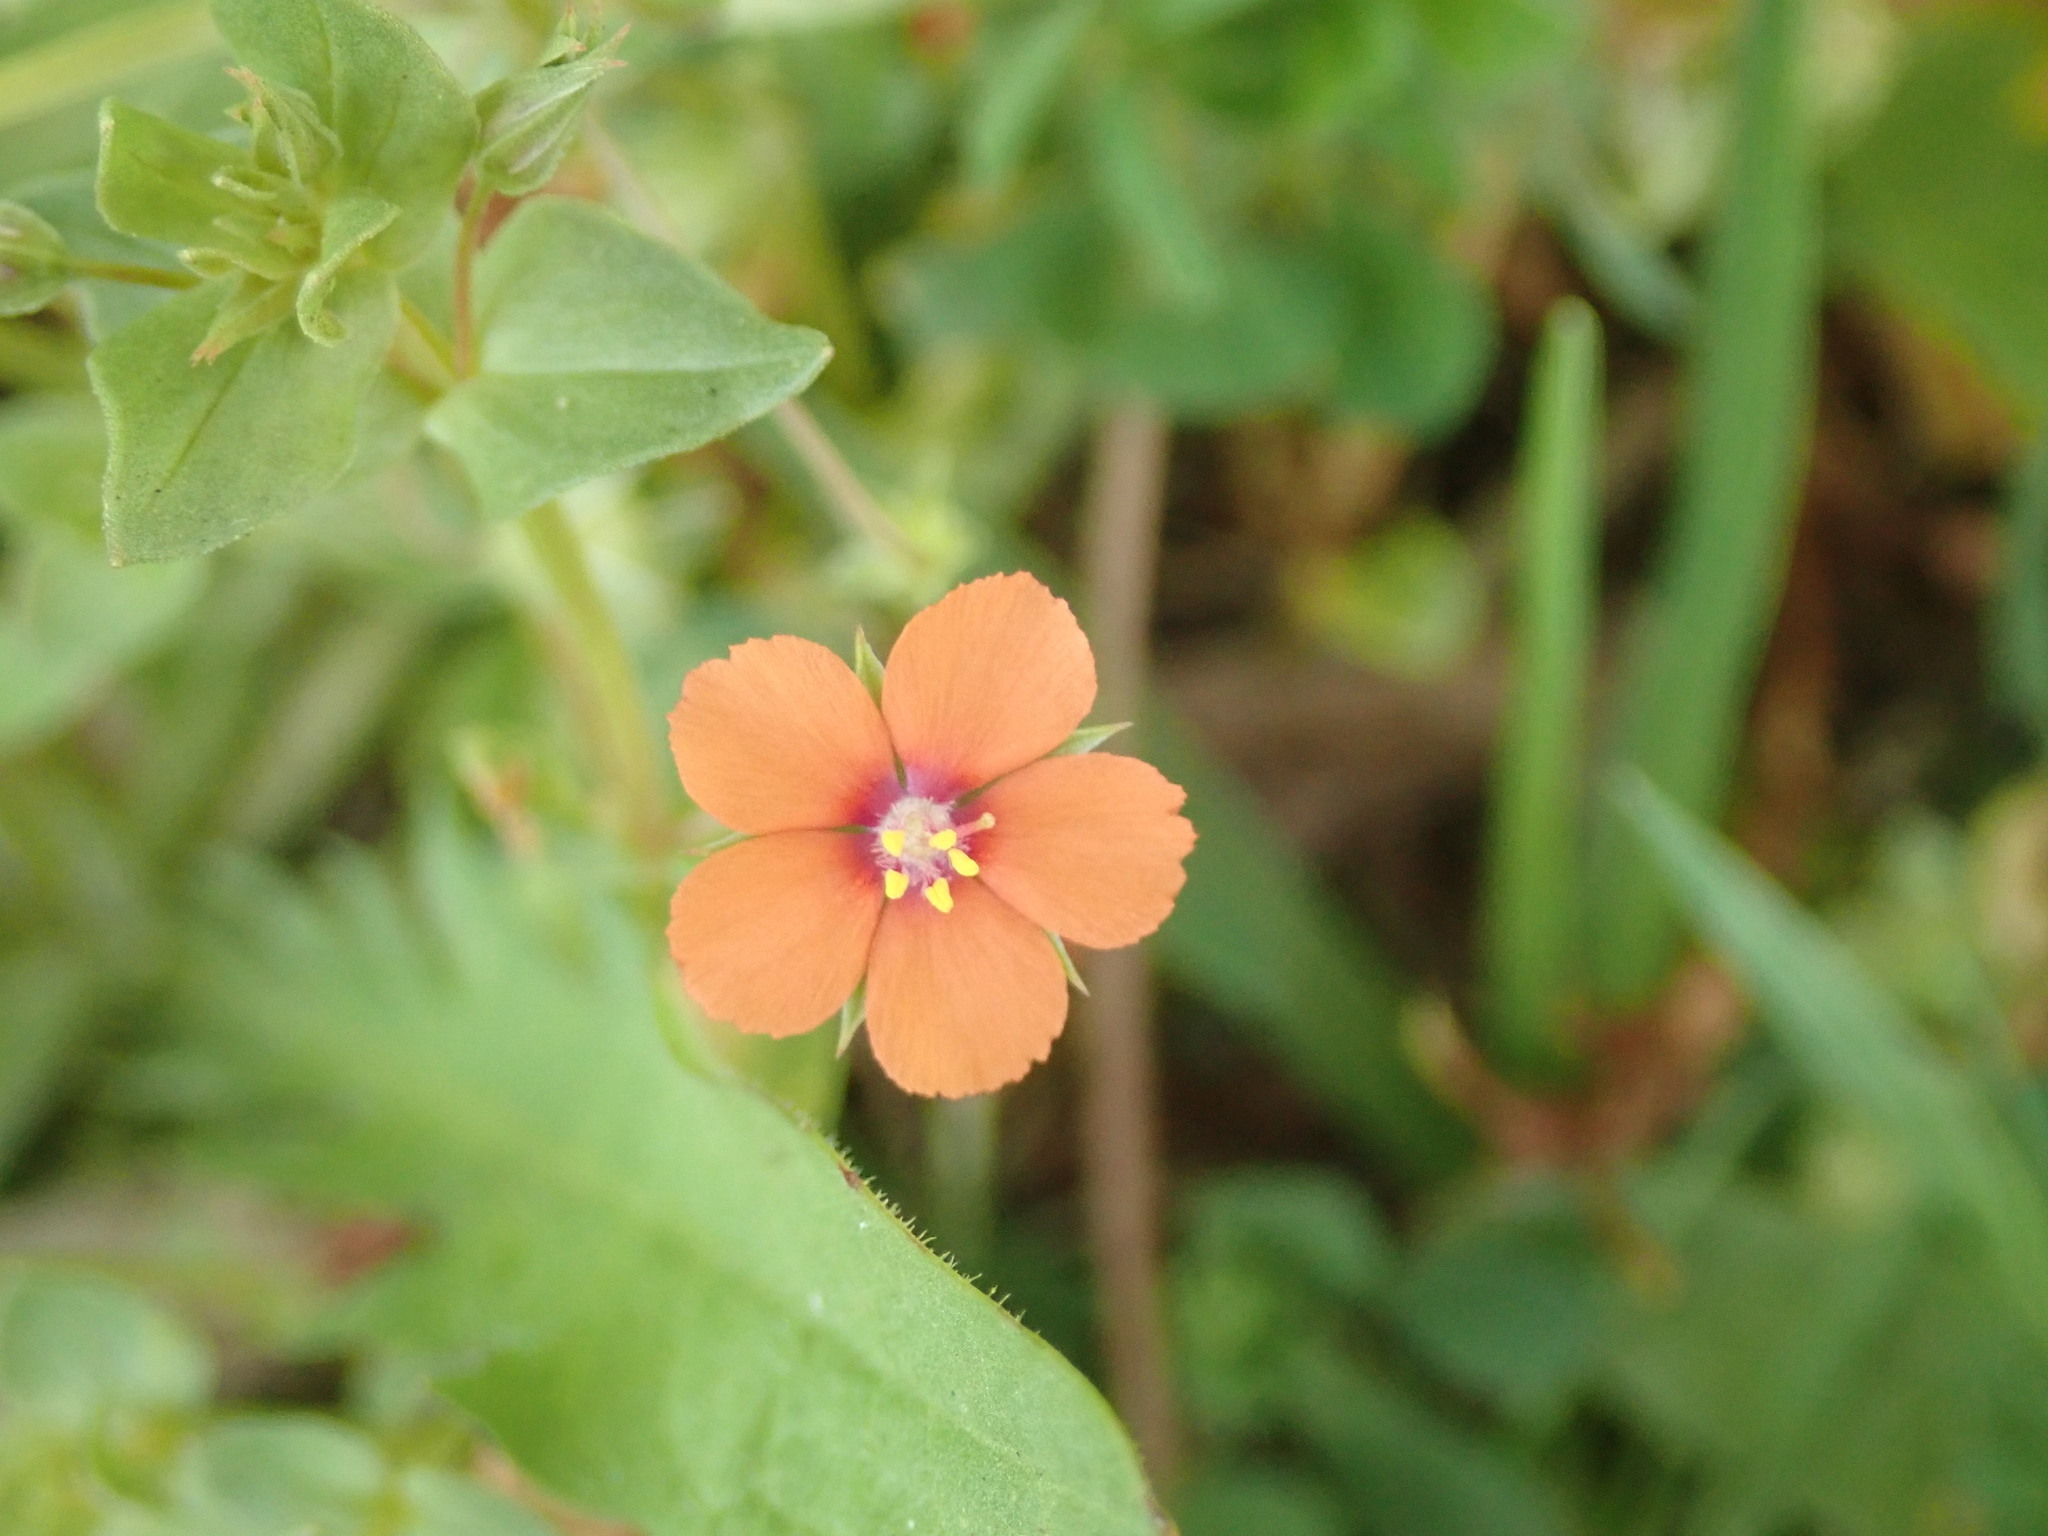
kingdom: Plantae
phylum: Tracheophyta
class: Magnoliopsida
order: Ericales
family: Primulaceae
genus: Lysimachia
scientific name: Lysimachia arvensis
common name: Scarlet pimpernel
